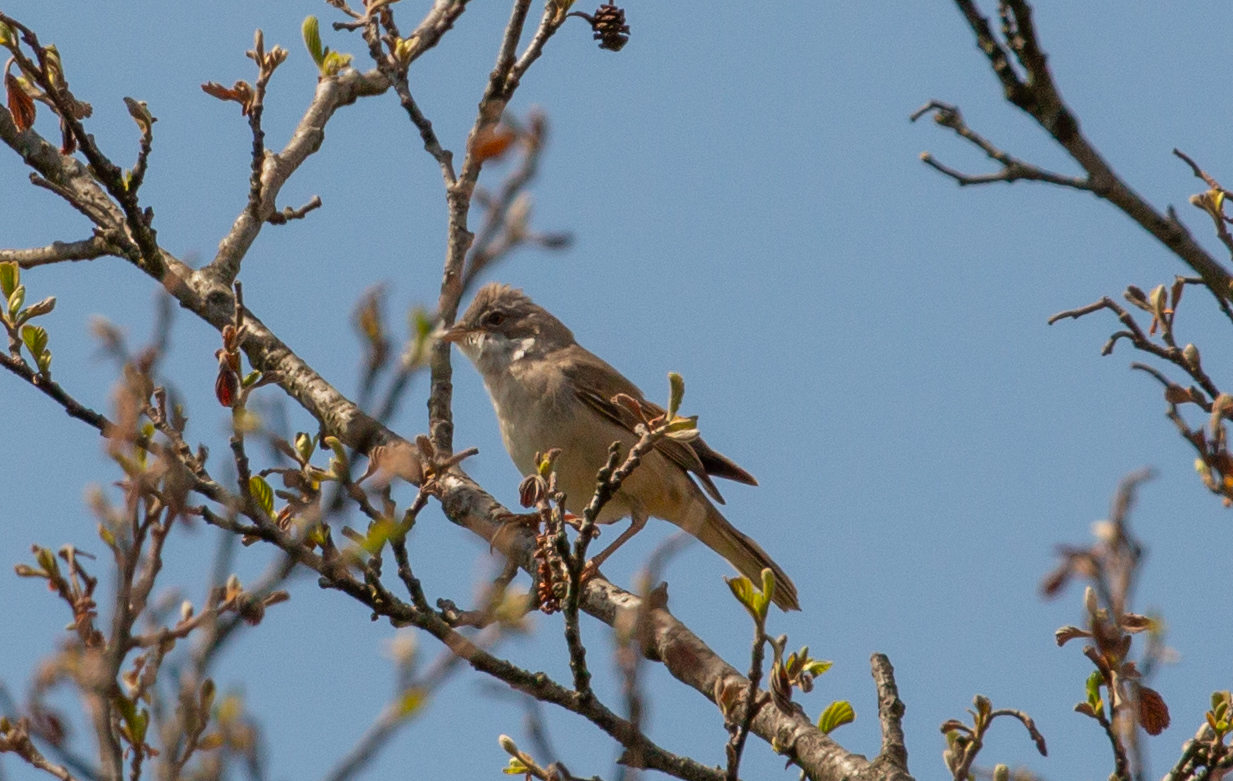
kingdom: Animalia
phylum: Chordata
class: Aves
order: Passeriformes
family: Sylviidae
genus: Sylvia
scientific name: Sylvia communis
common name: Common whitethroat
